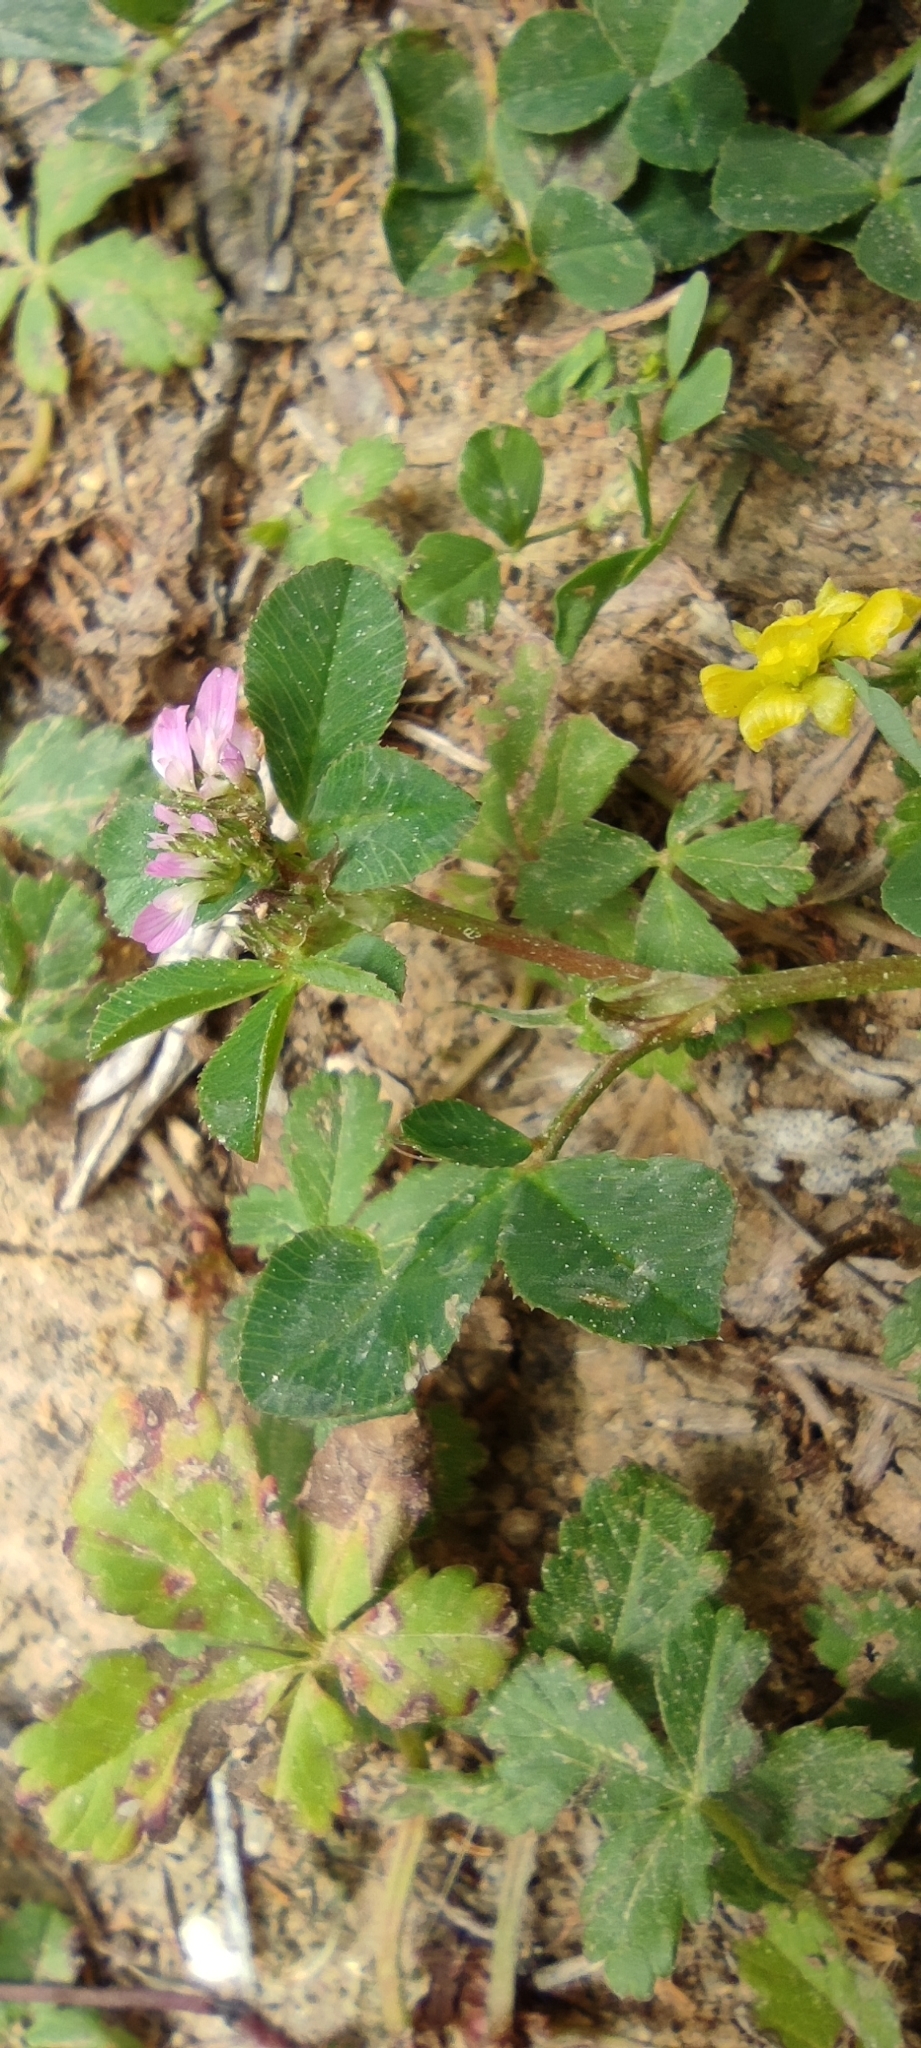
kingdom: Plantae
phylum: Tracheophyta
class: Magnoliopsida
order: Fabales
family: Fabaceae
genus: Trifolium
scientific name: Trifolium resupinatum
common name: Reversed clover
